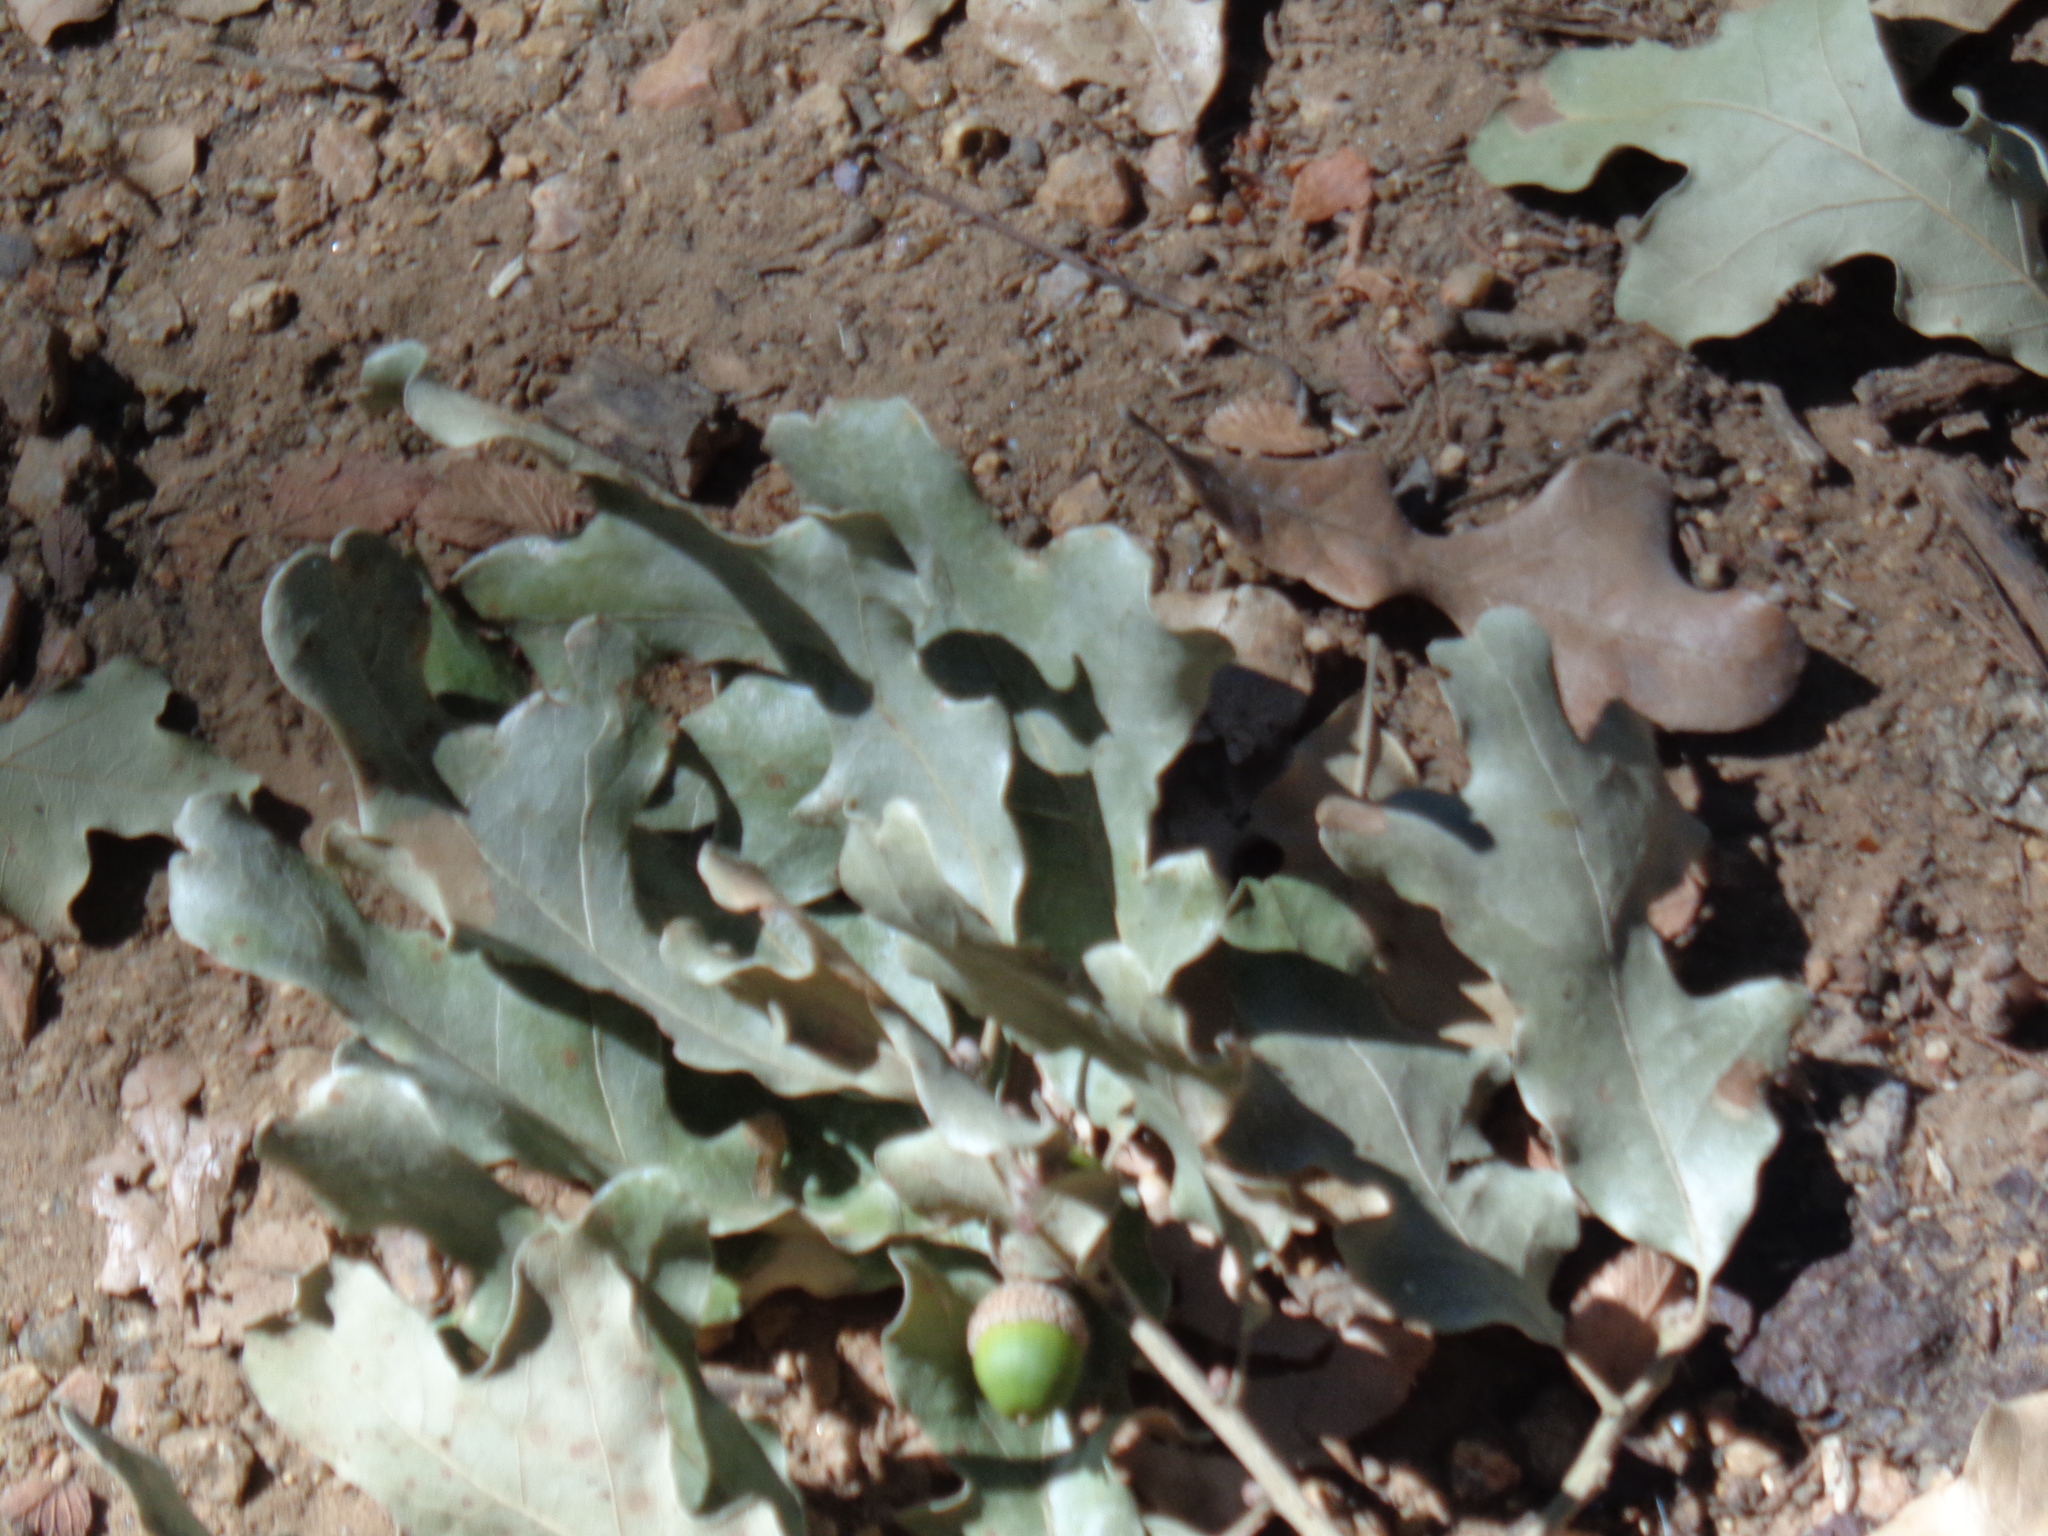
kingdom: Plantae
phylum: Tracheophyta
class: Magnoliopsida
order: Fagales
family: Fagaceae
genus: Quercus
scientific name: Quercus stellata
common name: Post oak
